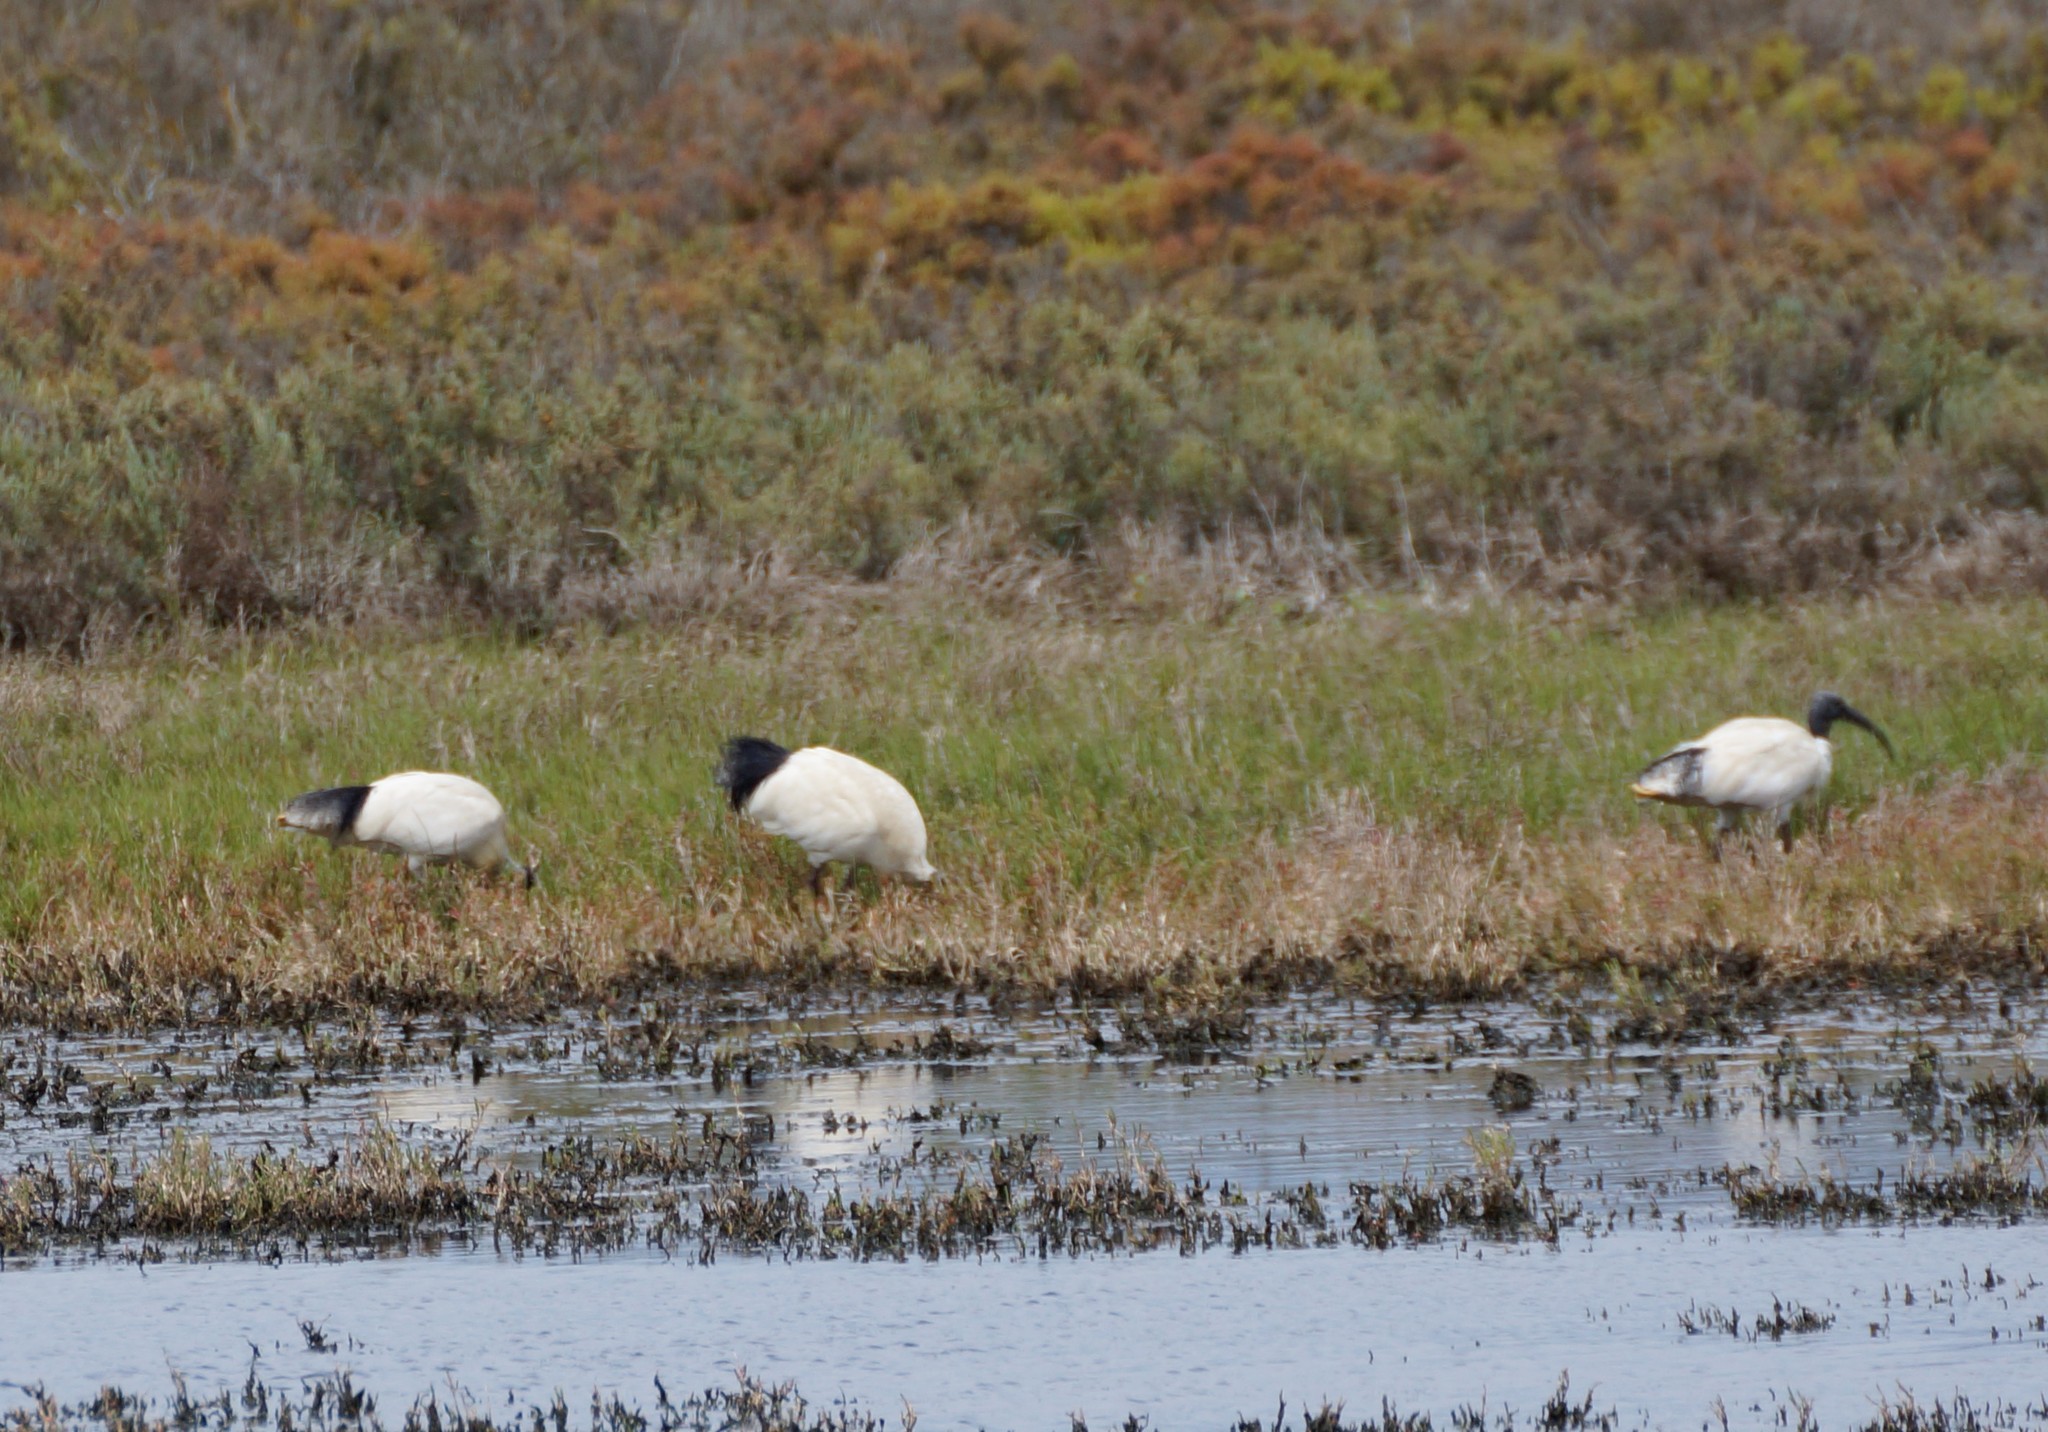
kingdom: Animalia
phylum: Chordata
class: Aves
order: Pelecaniformes
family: Threskiornithidae
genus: Threskiornis
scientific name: Threskiornis molucca
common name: Australian white ibis
